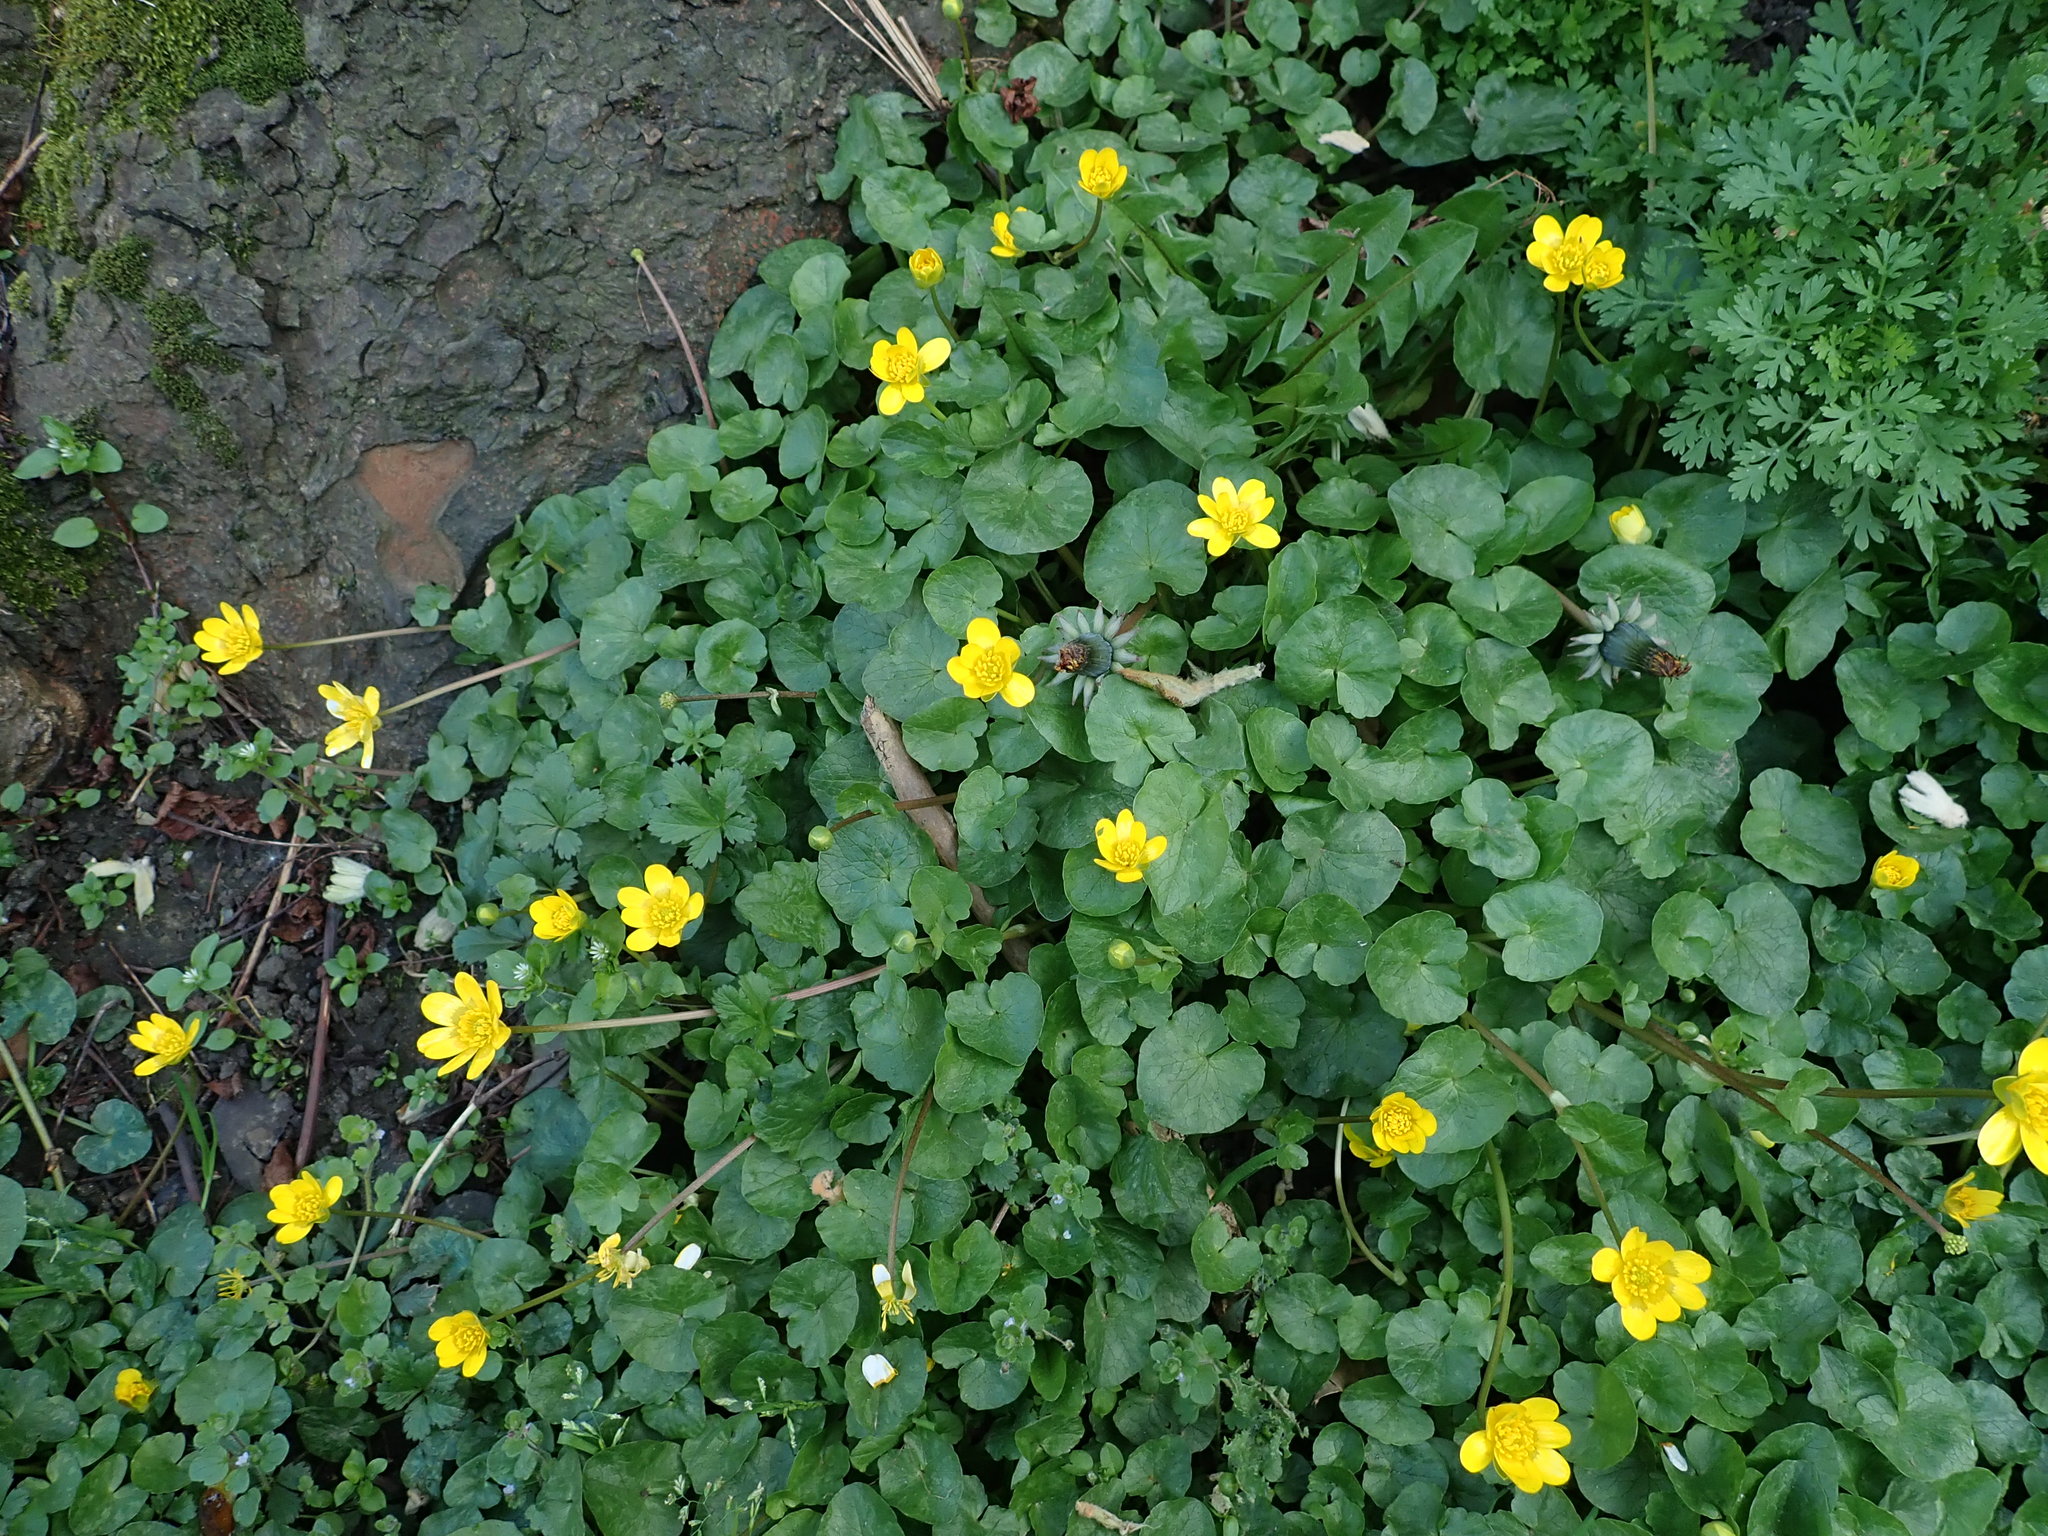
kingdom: Plantae
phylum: Tracheophyta
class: Magnoliopsida
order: Ranunculales
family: Ranunculaceae
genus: Ficaria
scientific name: Ficaria verna
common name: Lesser celandine
